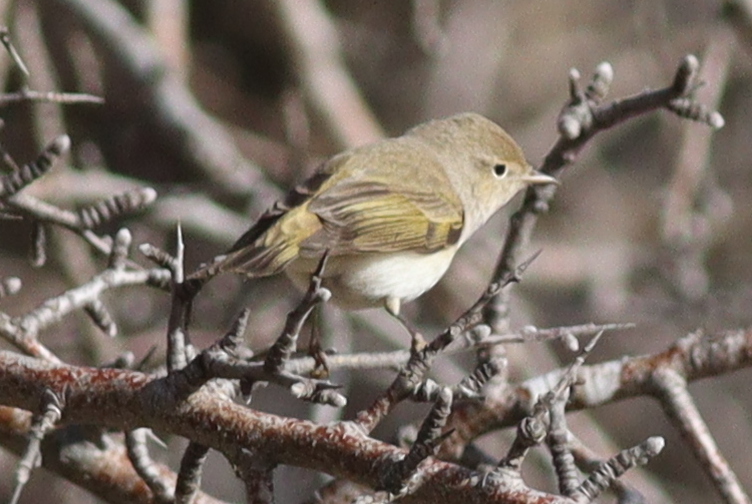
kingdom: Animalia
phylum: Chordata
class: Aves
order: Passeriformes
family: Phylloscopidae
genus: Phylloscopus
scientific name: Phylloscopus orientalis
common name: Eastern bonelli's warbler
